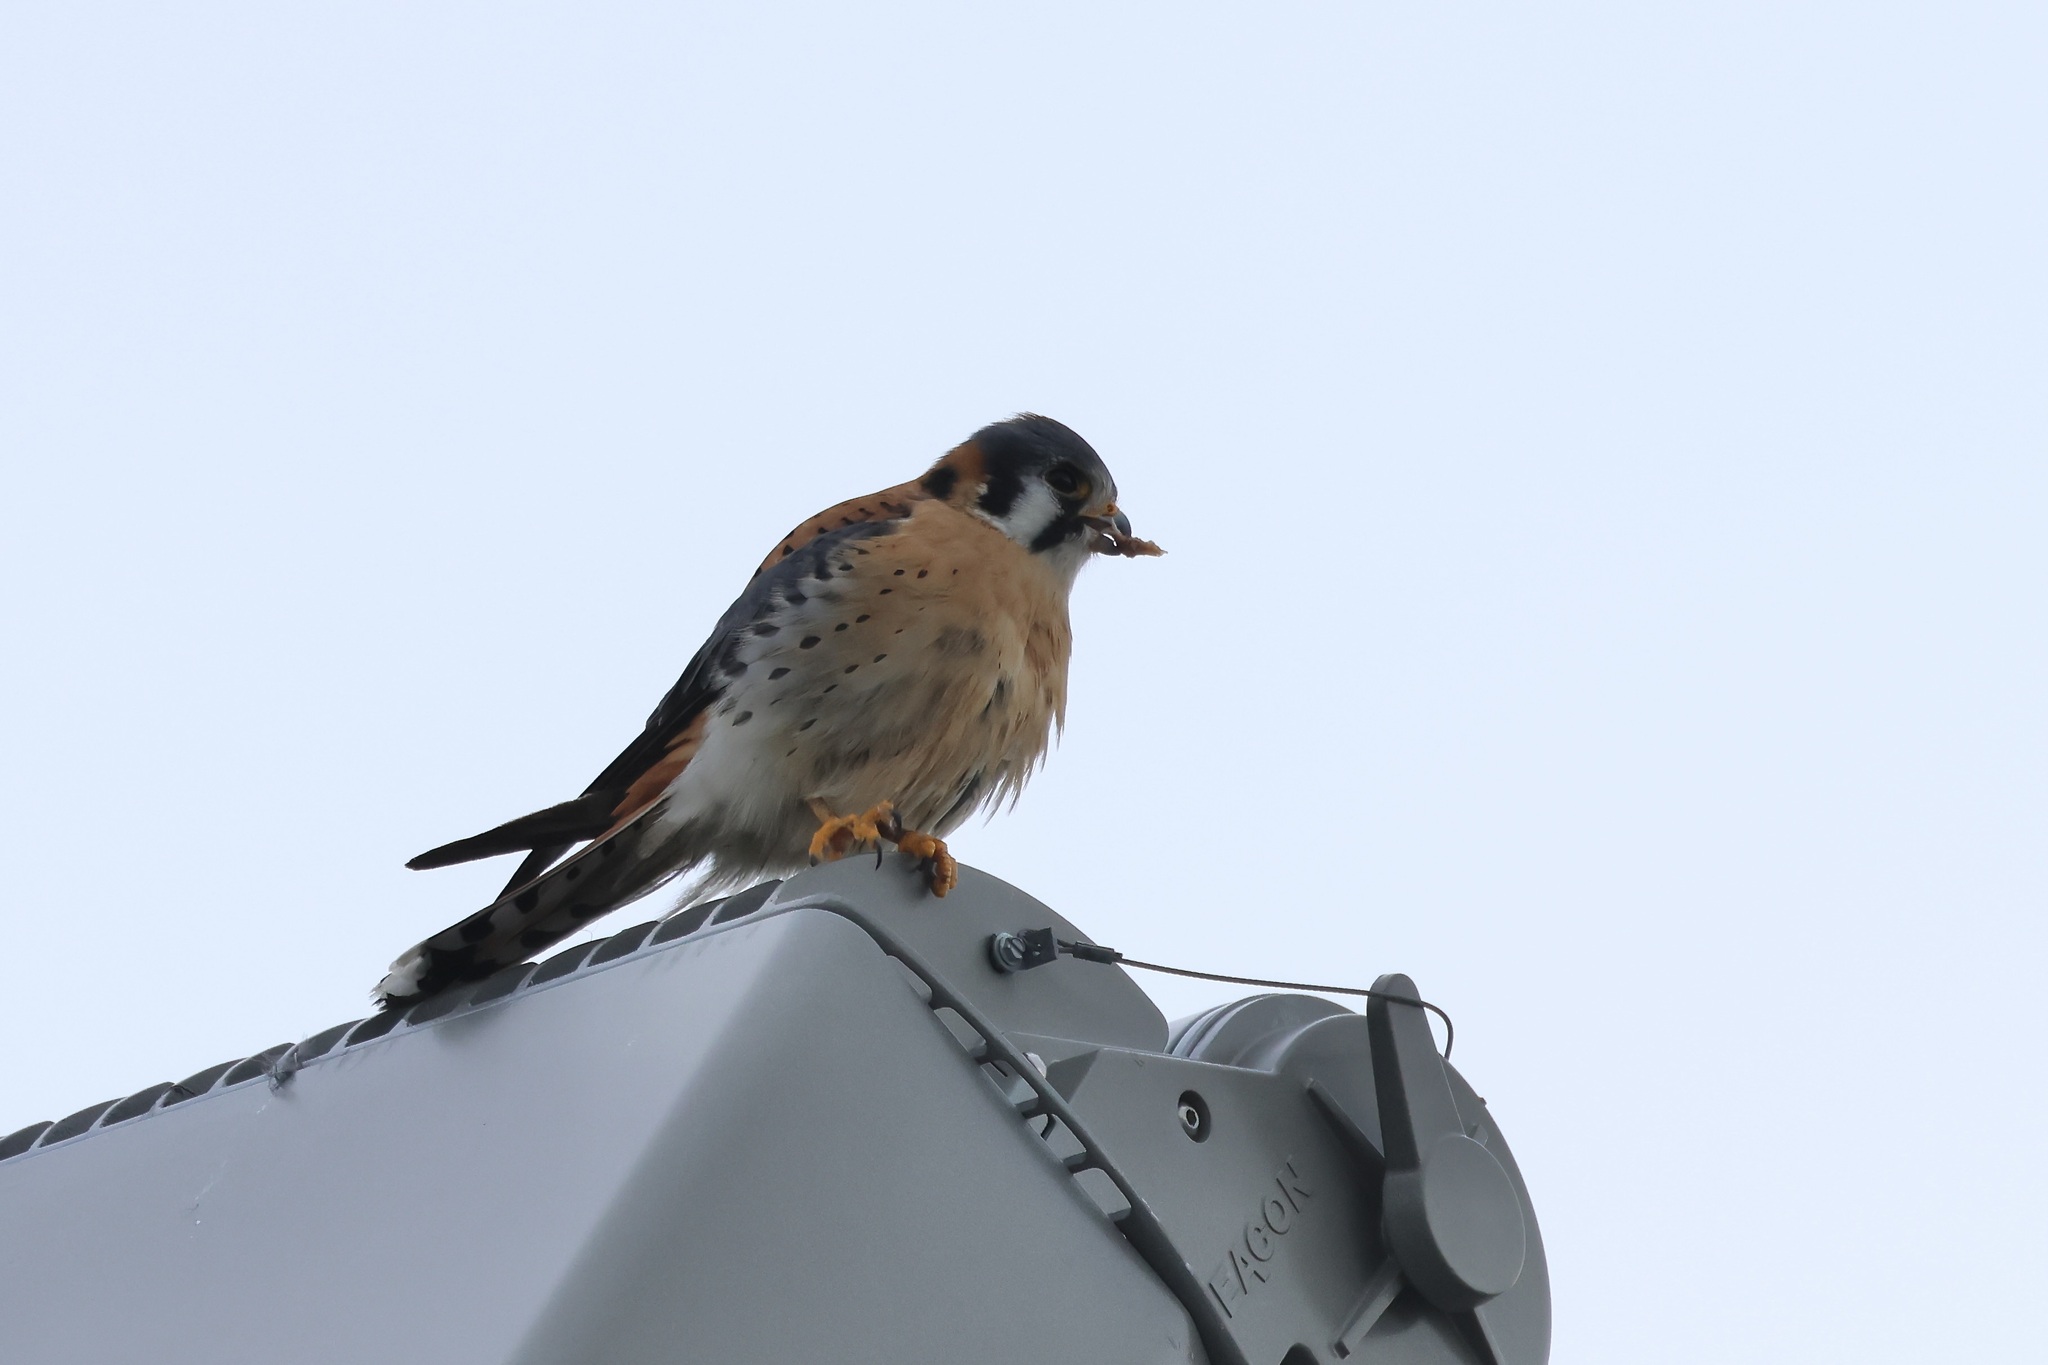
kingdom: Animalia
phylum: Chordata
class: Aves
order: Falconiformes
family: Falconidae
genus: Falco
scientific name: Falco sparverius
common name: American kestrel
